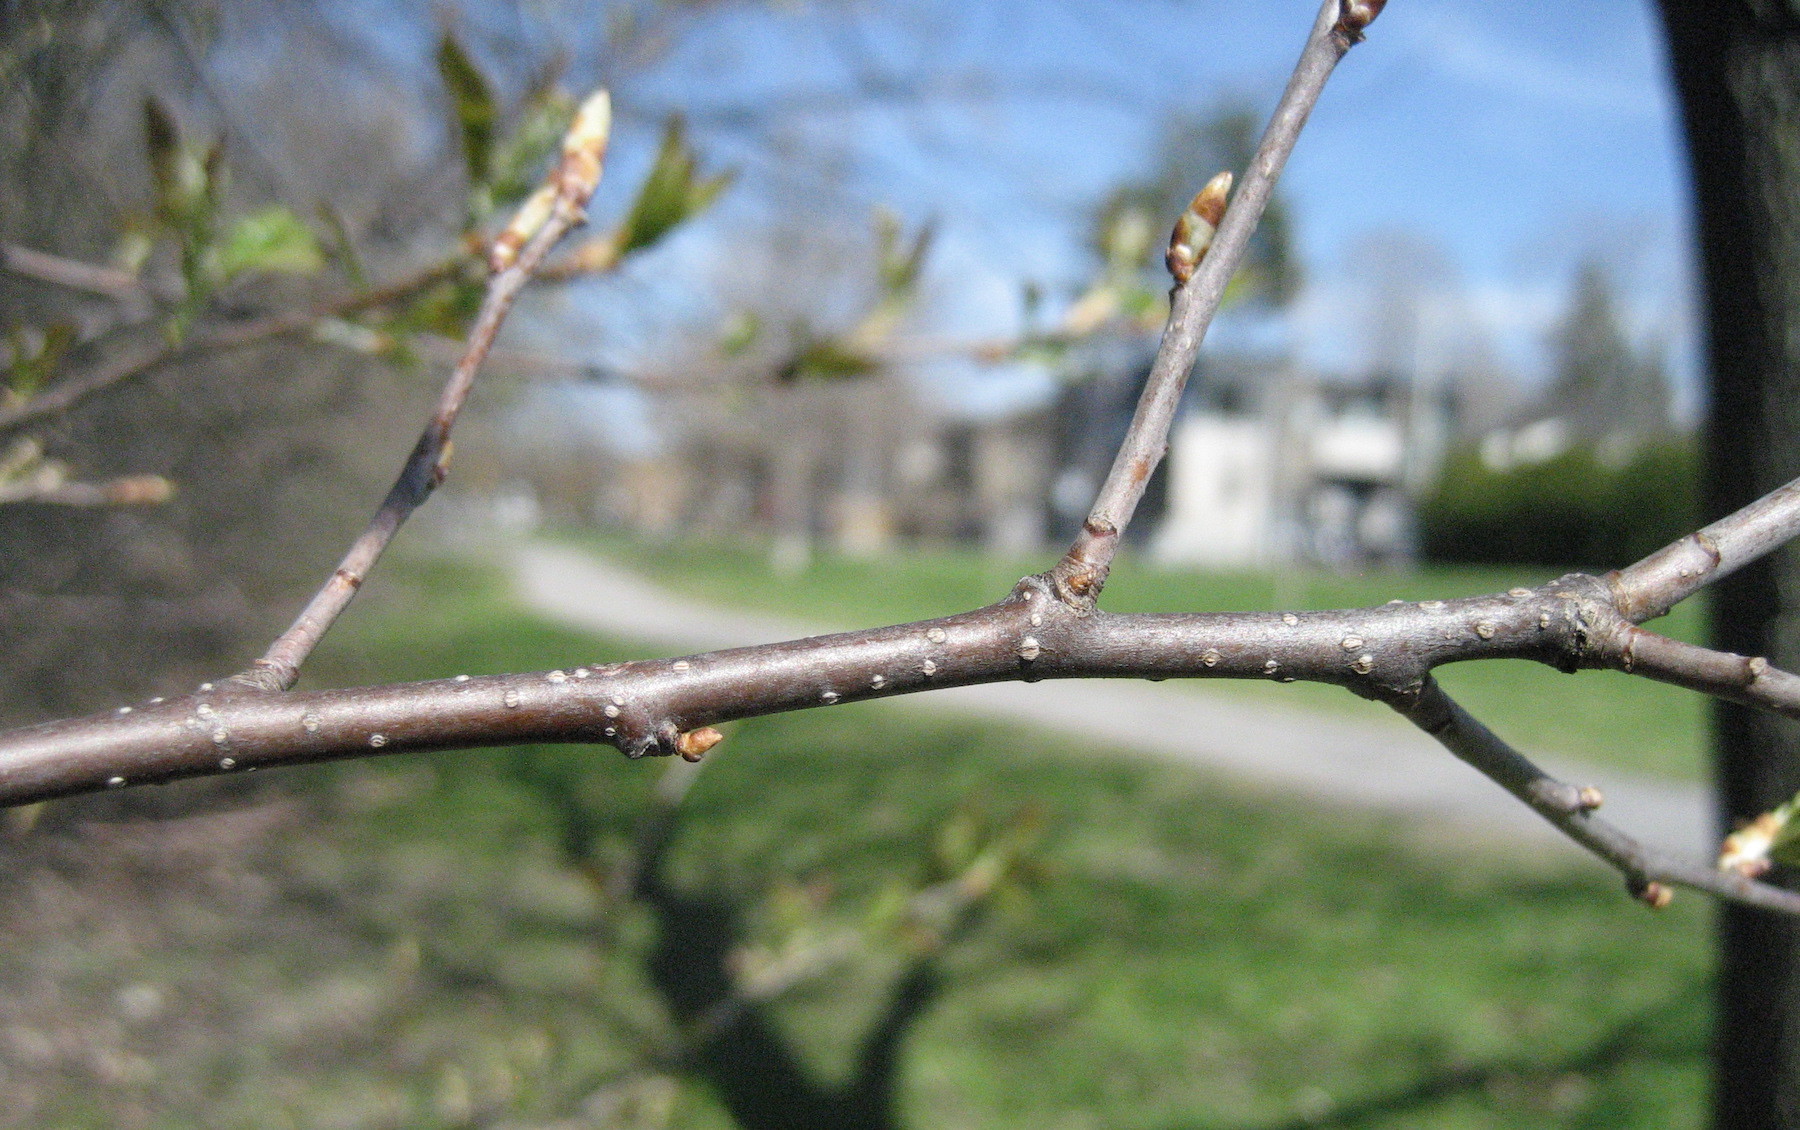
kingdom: Plantae
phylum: Tracheophyta
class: Magnoliopsida
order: Rosales
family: Rosaceae
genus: Prunus
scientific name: Prunus virginiana
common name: Chokecherry
